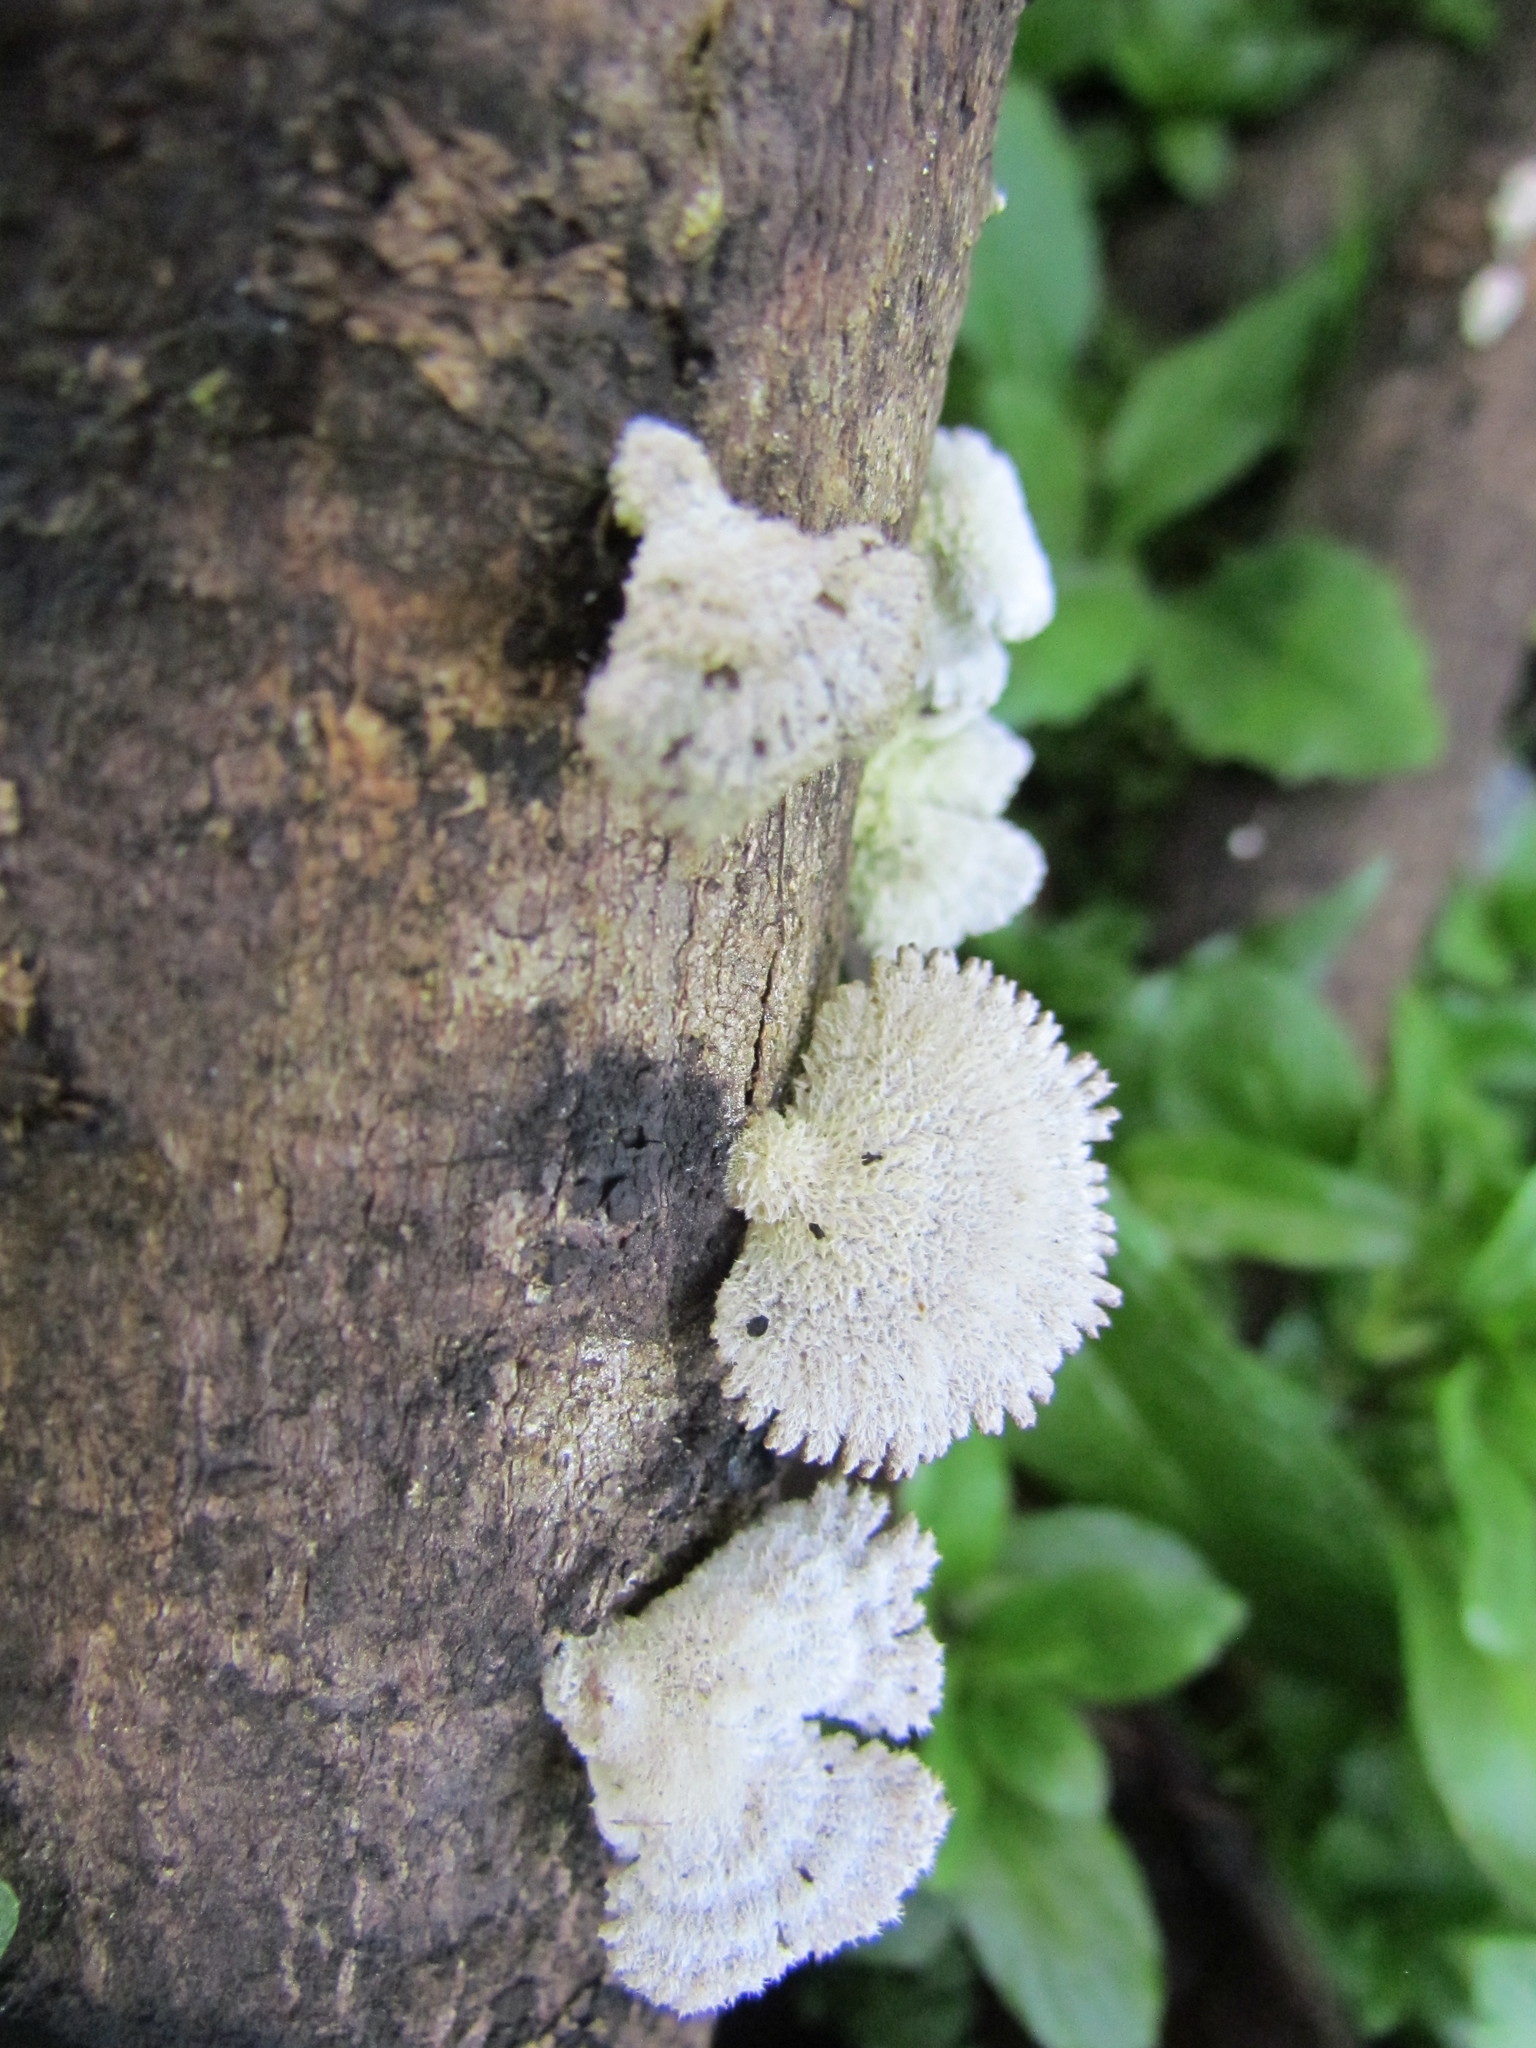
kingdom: Fungi
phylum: Basidiomycota
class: Agaricomycetes
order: Agaricales
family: Schizophyllaceae
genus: Schizophyllum
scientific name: Schizophyllum commune
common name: Common porecrust
